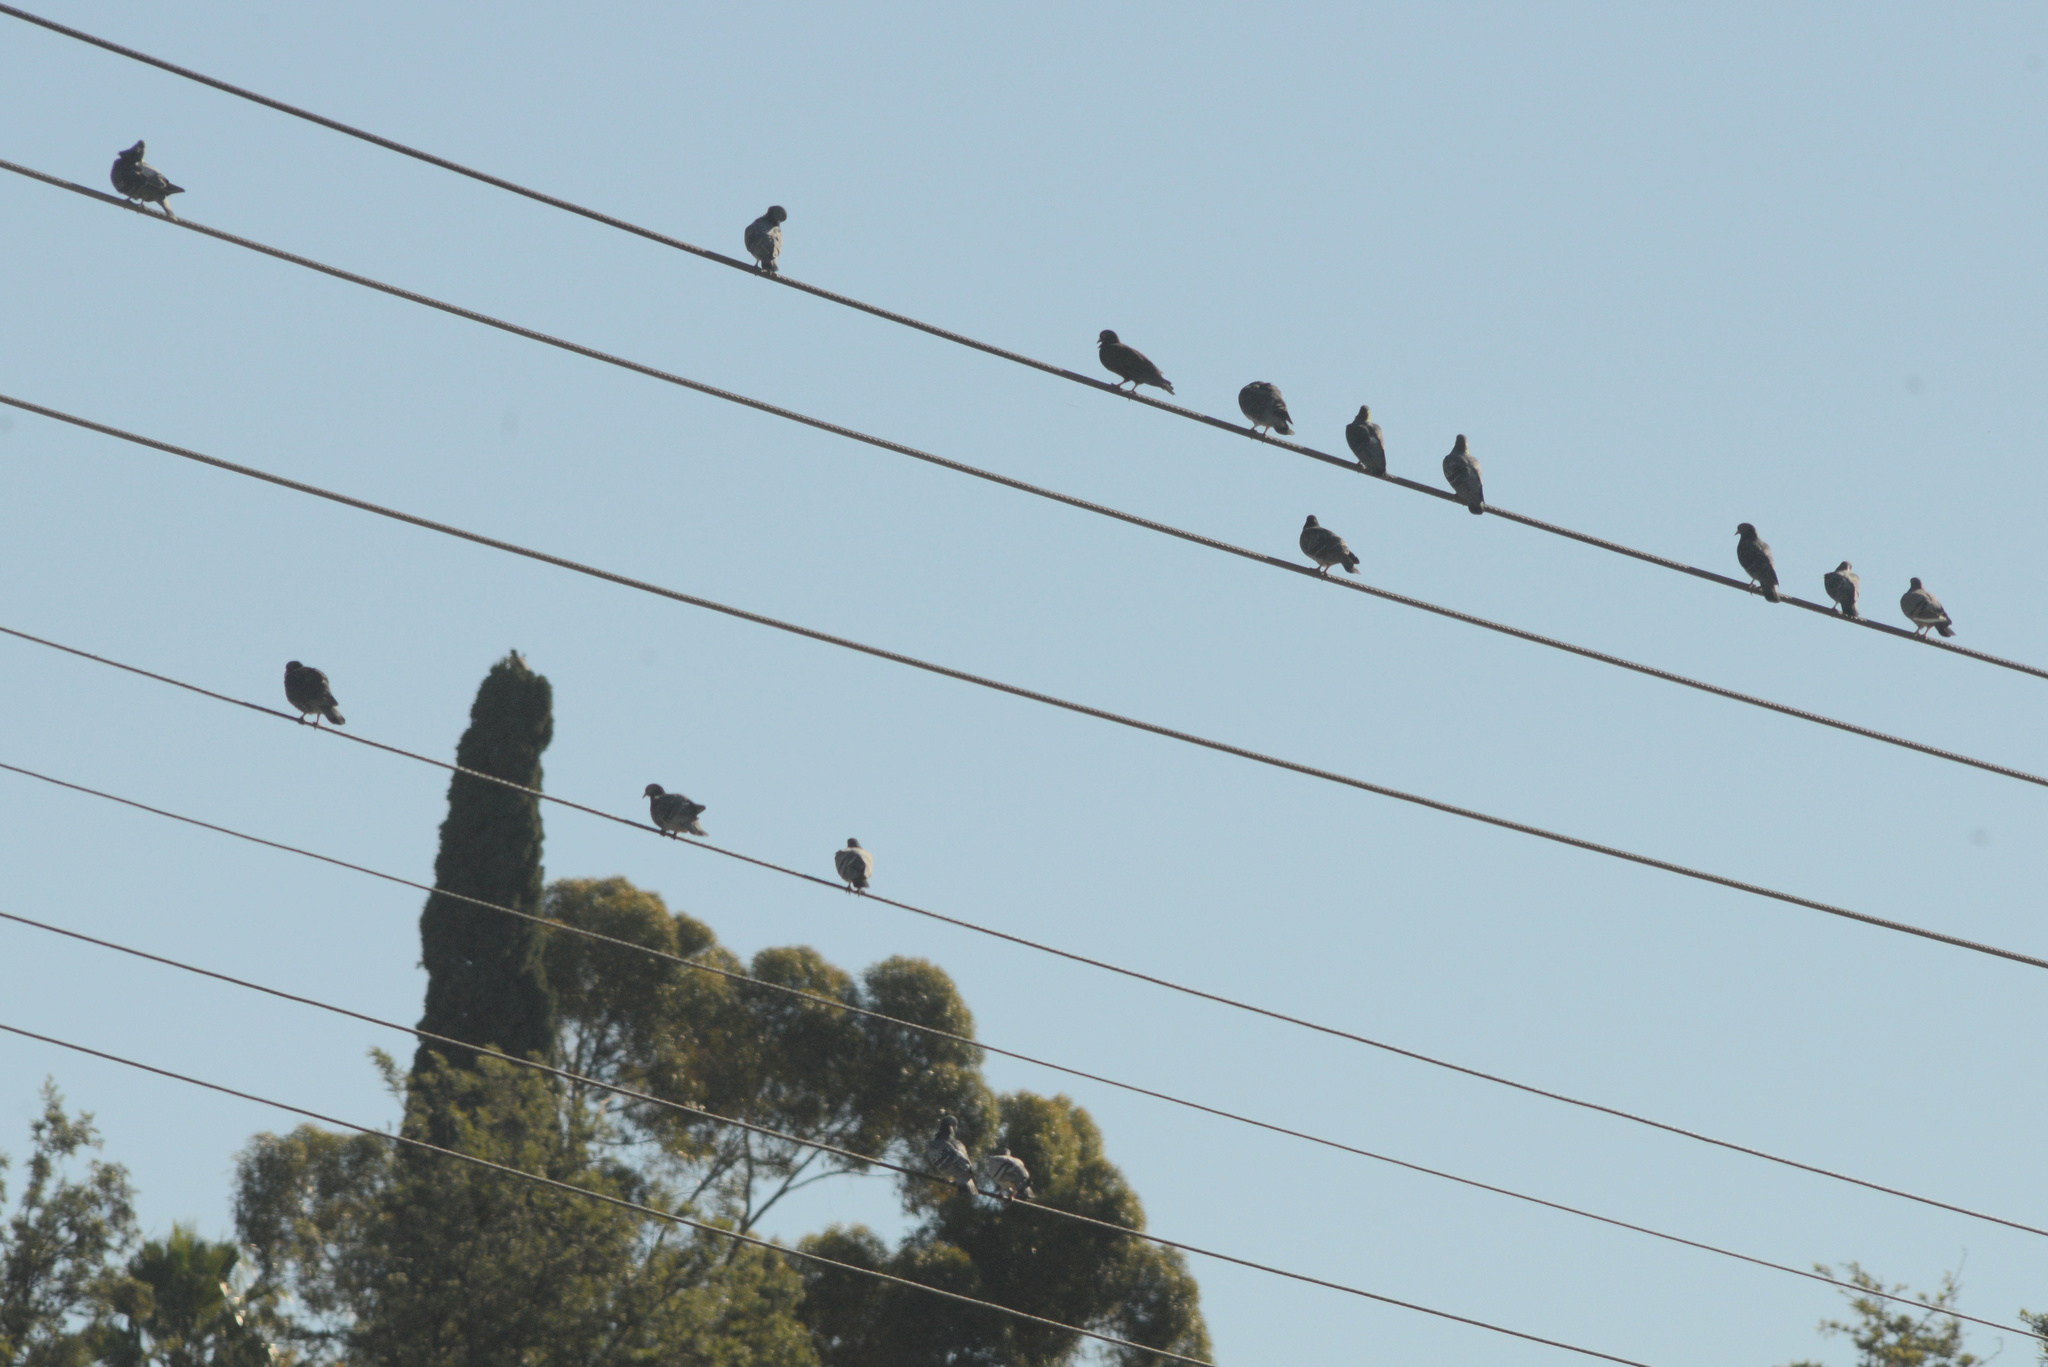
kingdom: Animalia
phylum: Chordata
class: Aves
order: Columbiformes
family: Columbidae
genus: Columba
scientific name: Columba livia
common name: Rock pigeon
